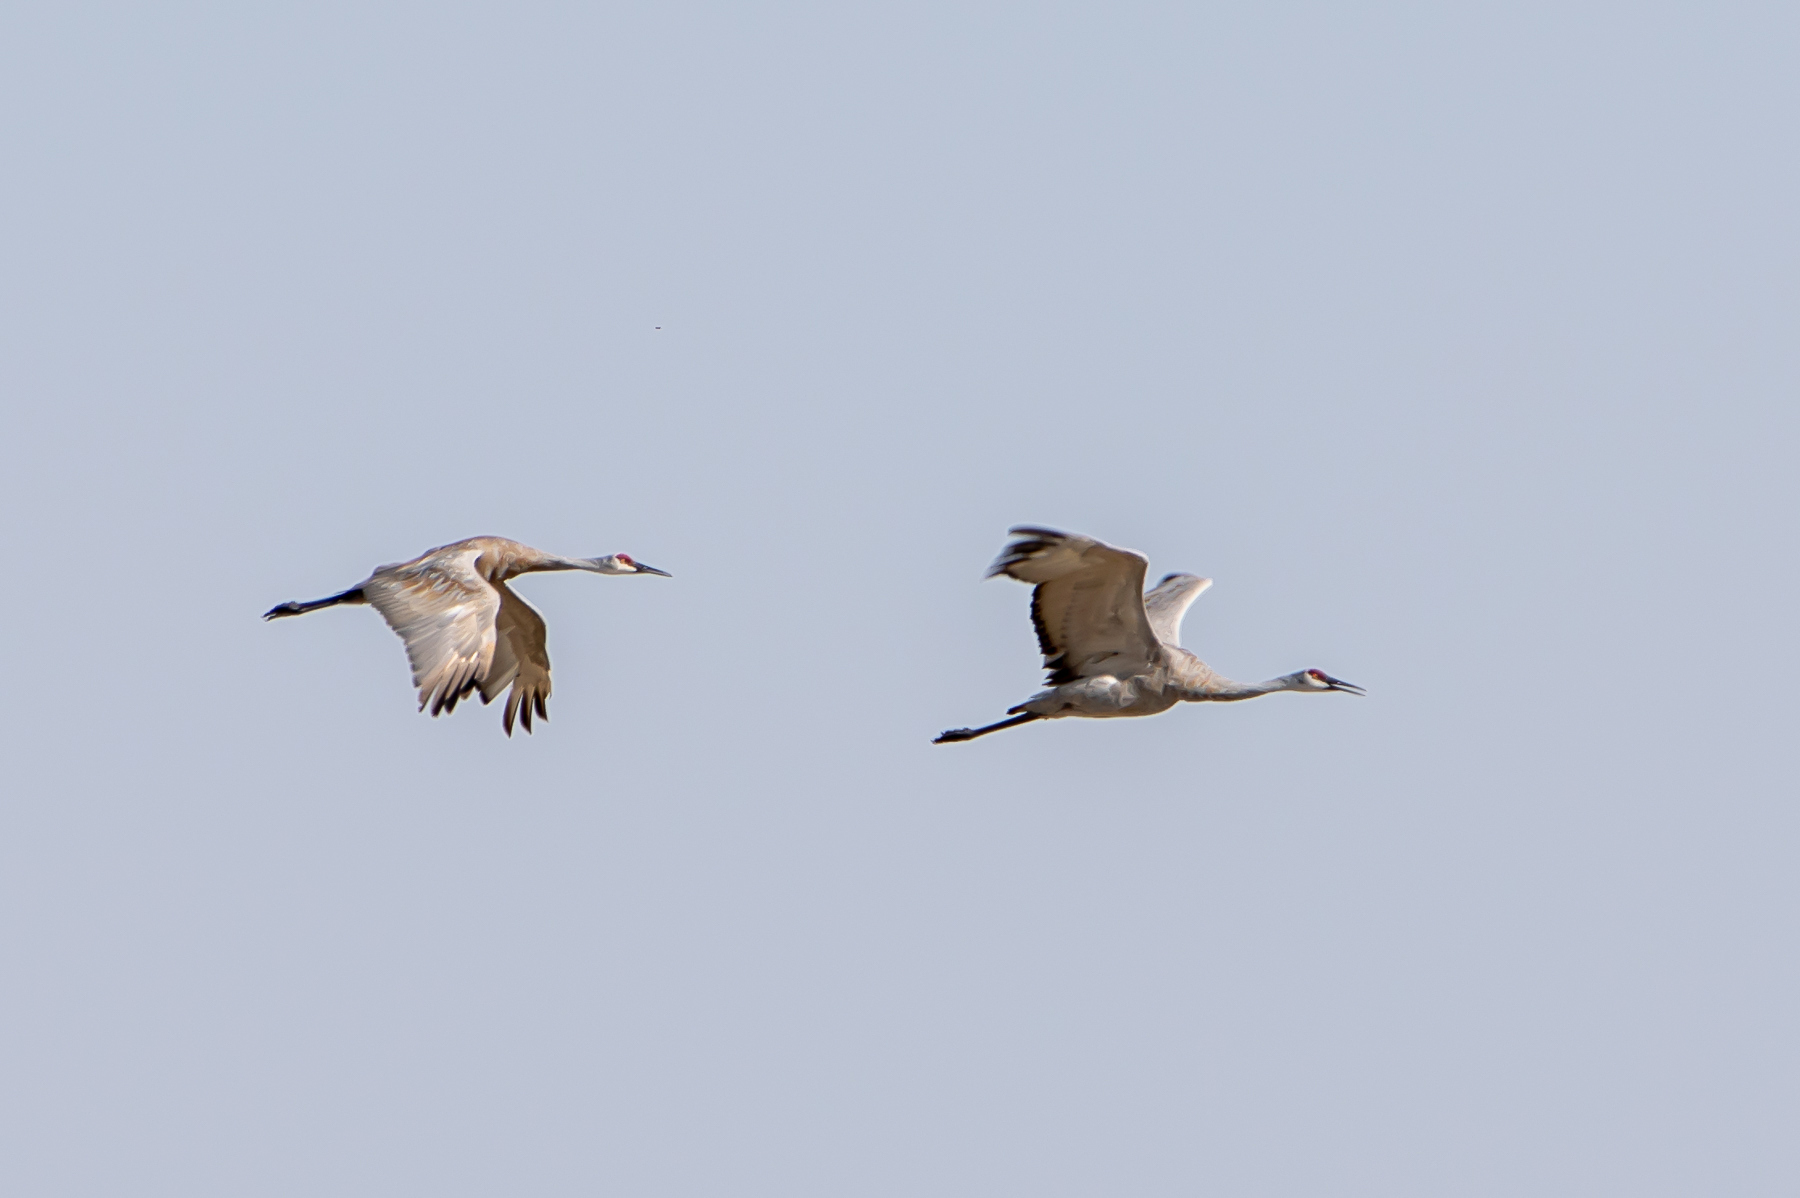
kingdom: Animalia
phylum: Chordata
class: Aves
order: Gruiformes
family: Gruidae
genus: Grus
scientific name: Grus canadensis
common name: Sandhill crane
